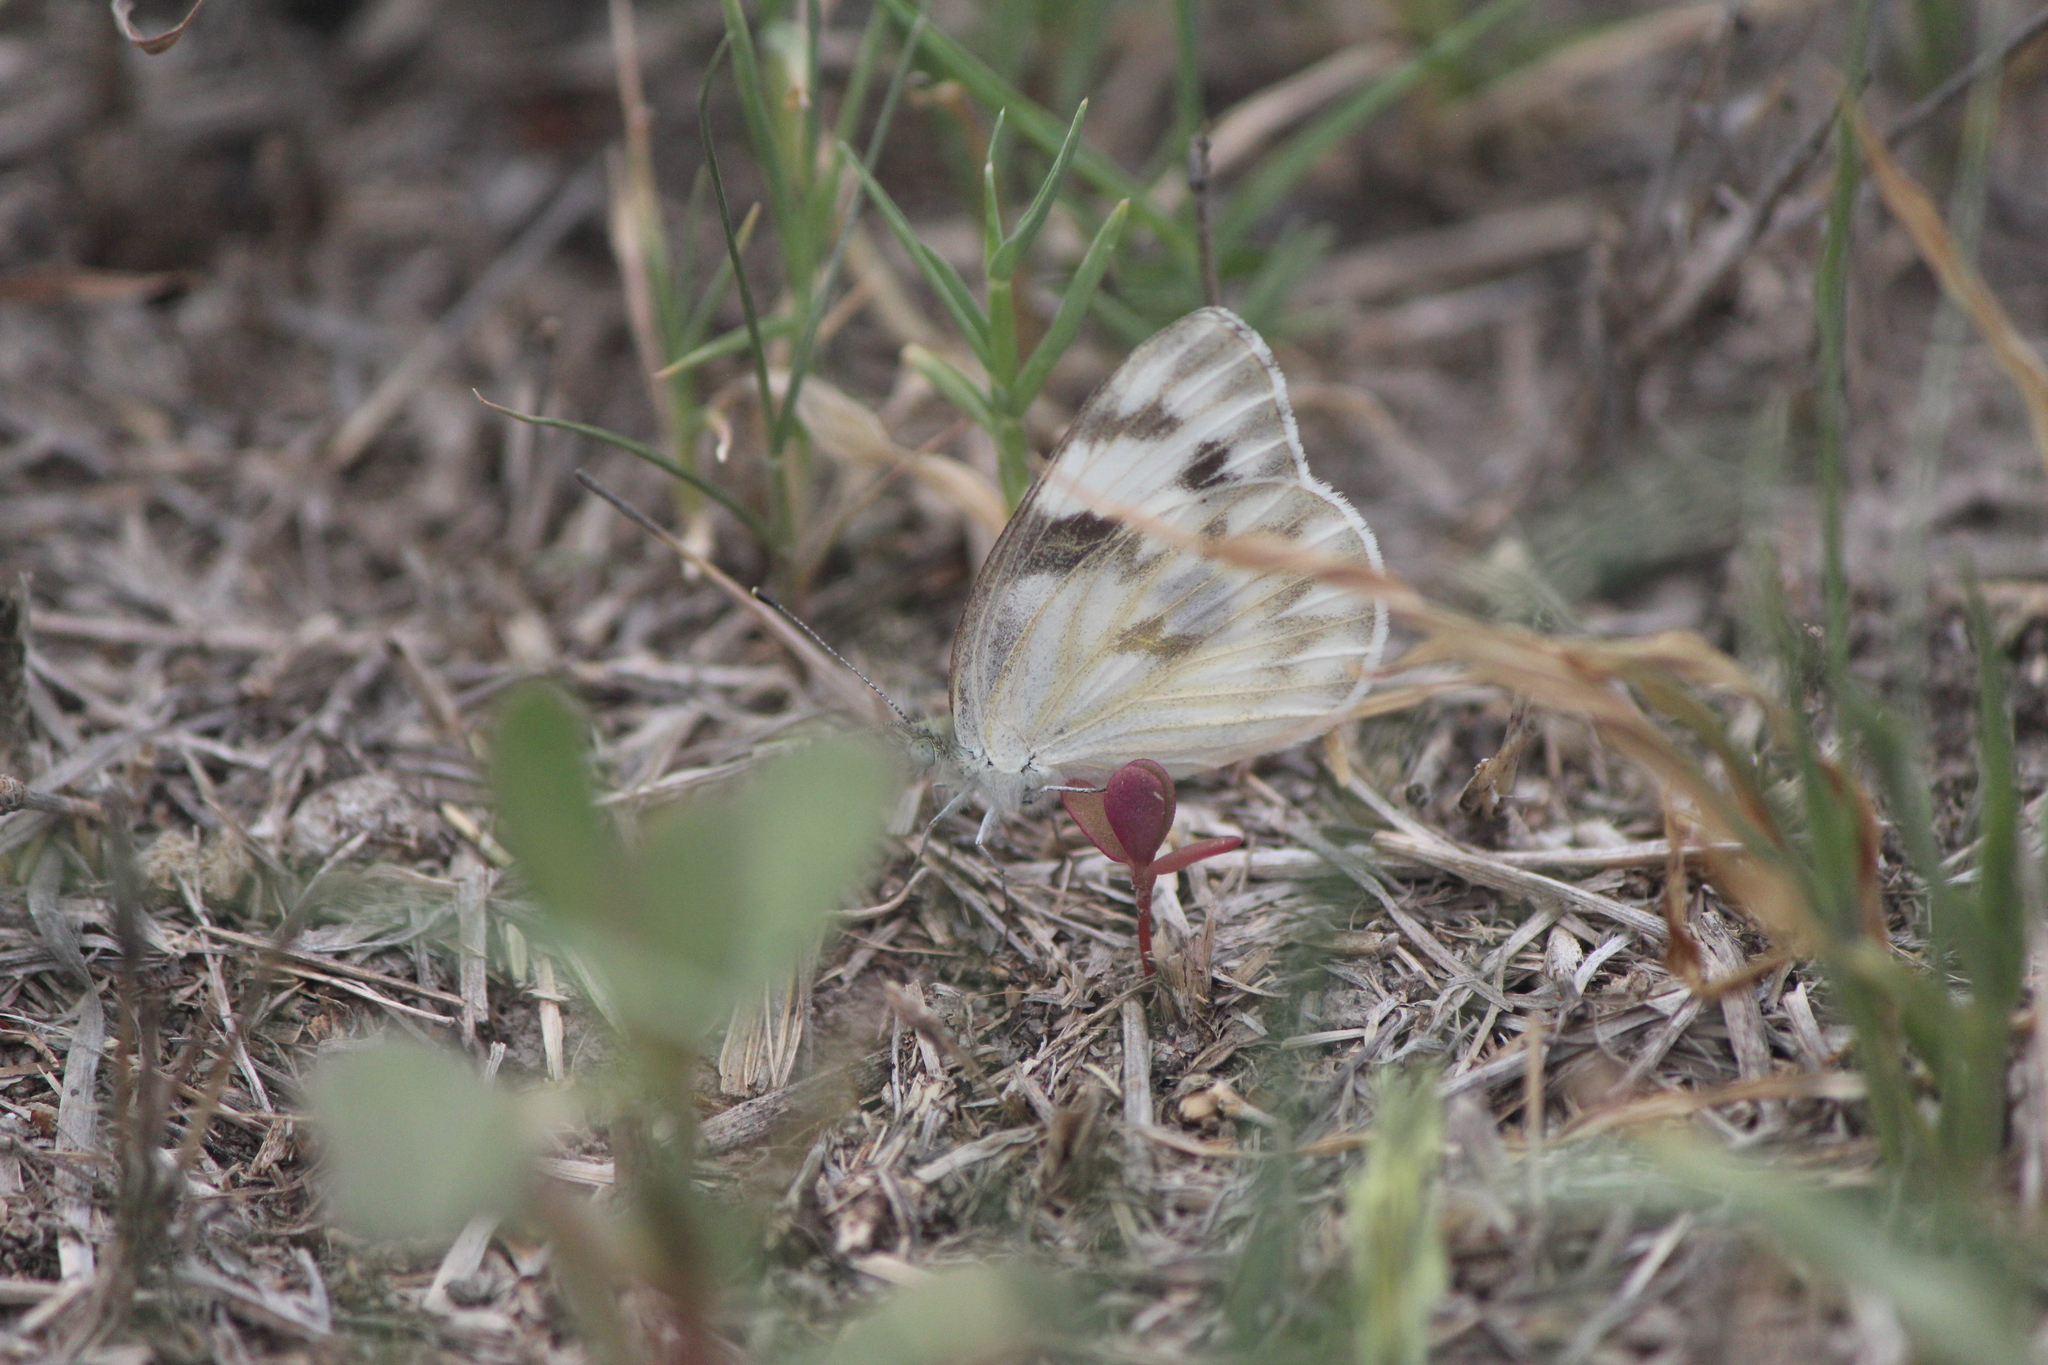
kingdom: Animalia
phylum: Arthropoda
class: Insecta
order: Lepidoptera
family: Pieridae
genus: Pontia
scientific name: Pontia protodice
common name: Checkered white
